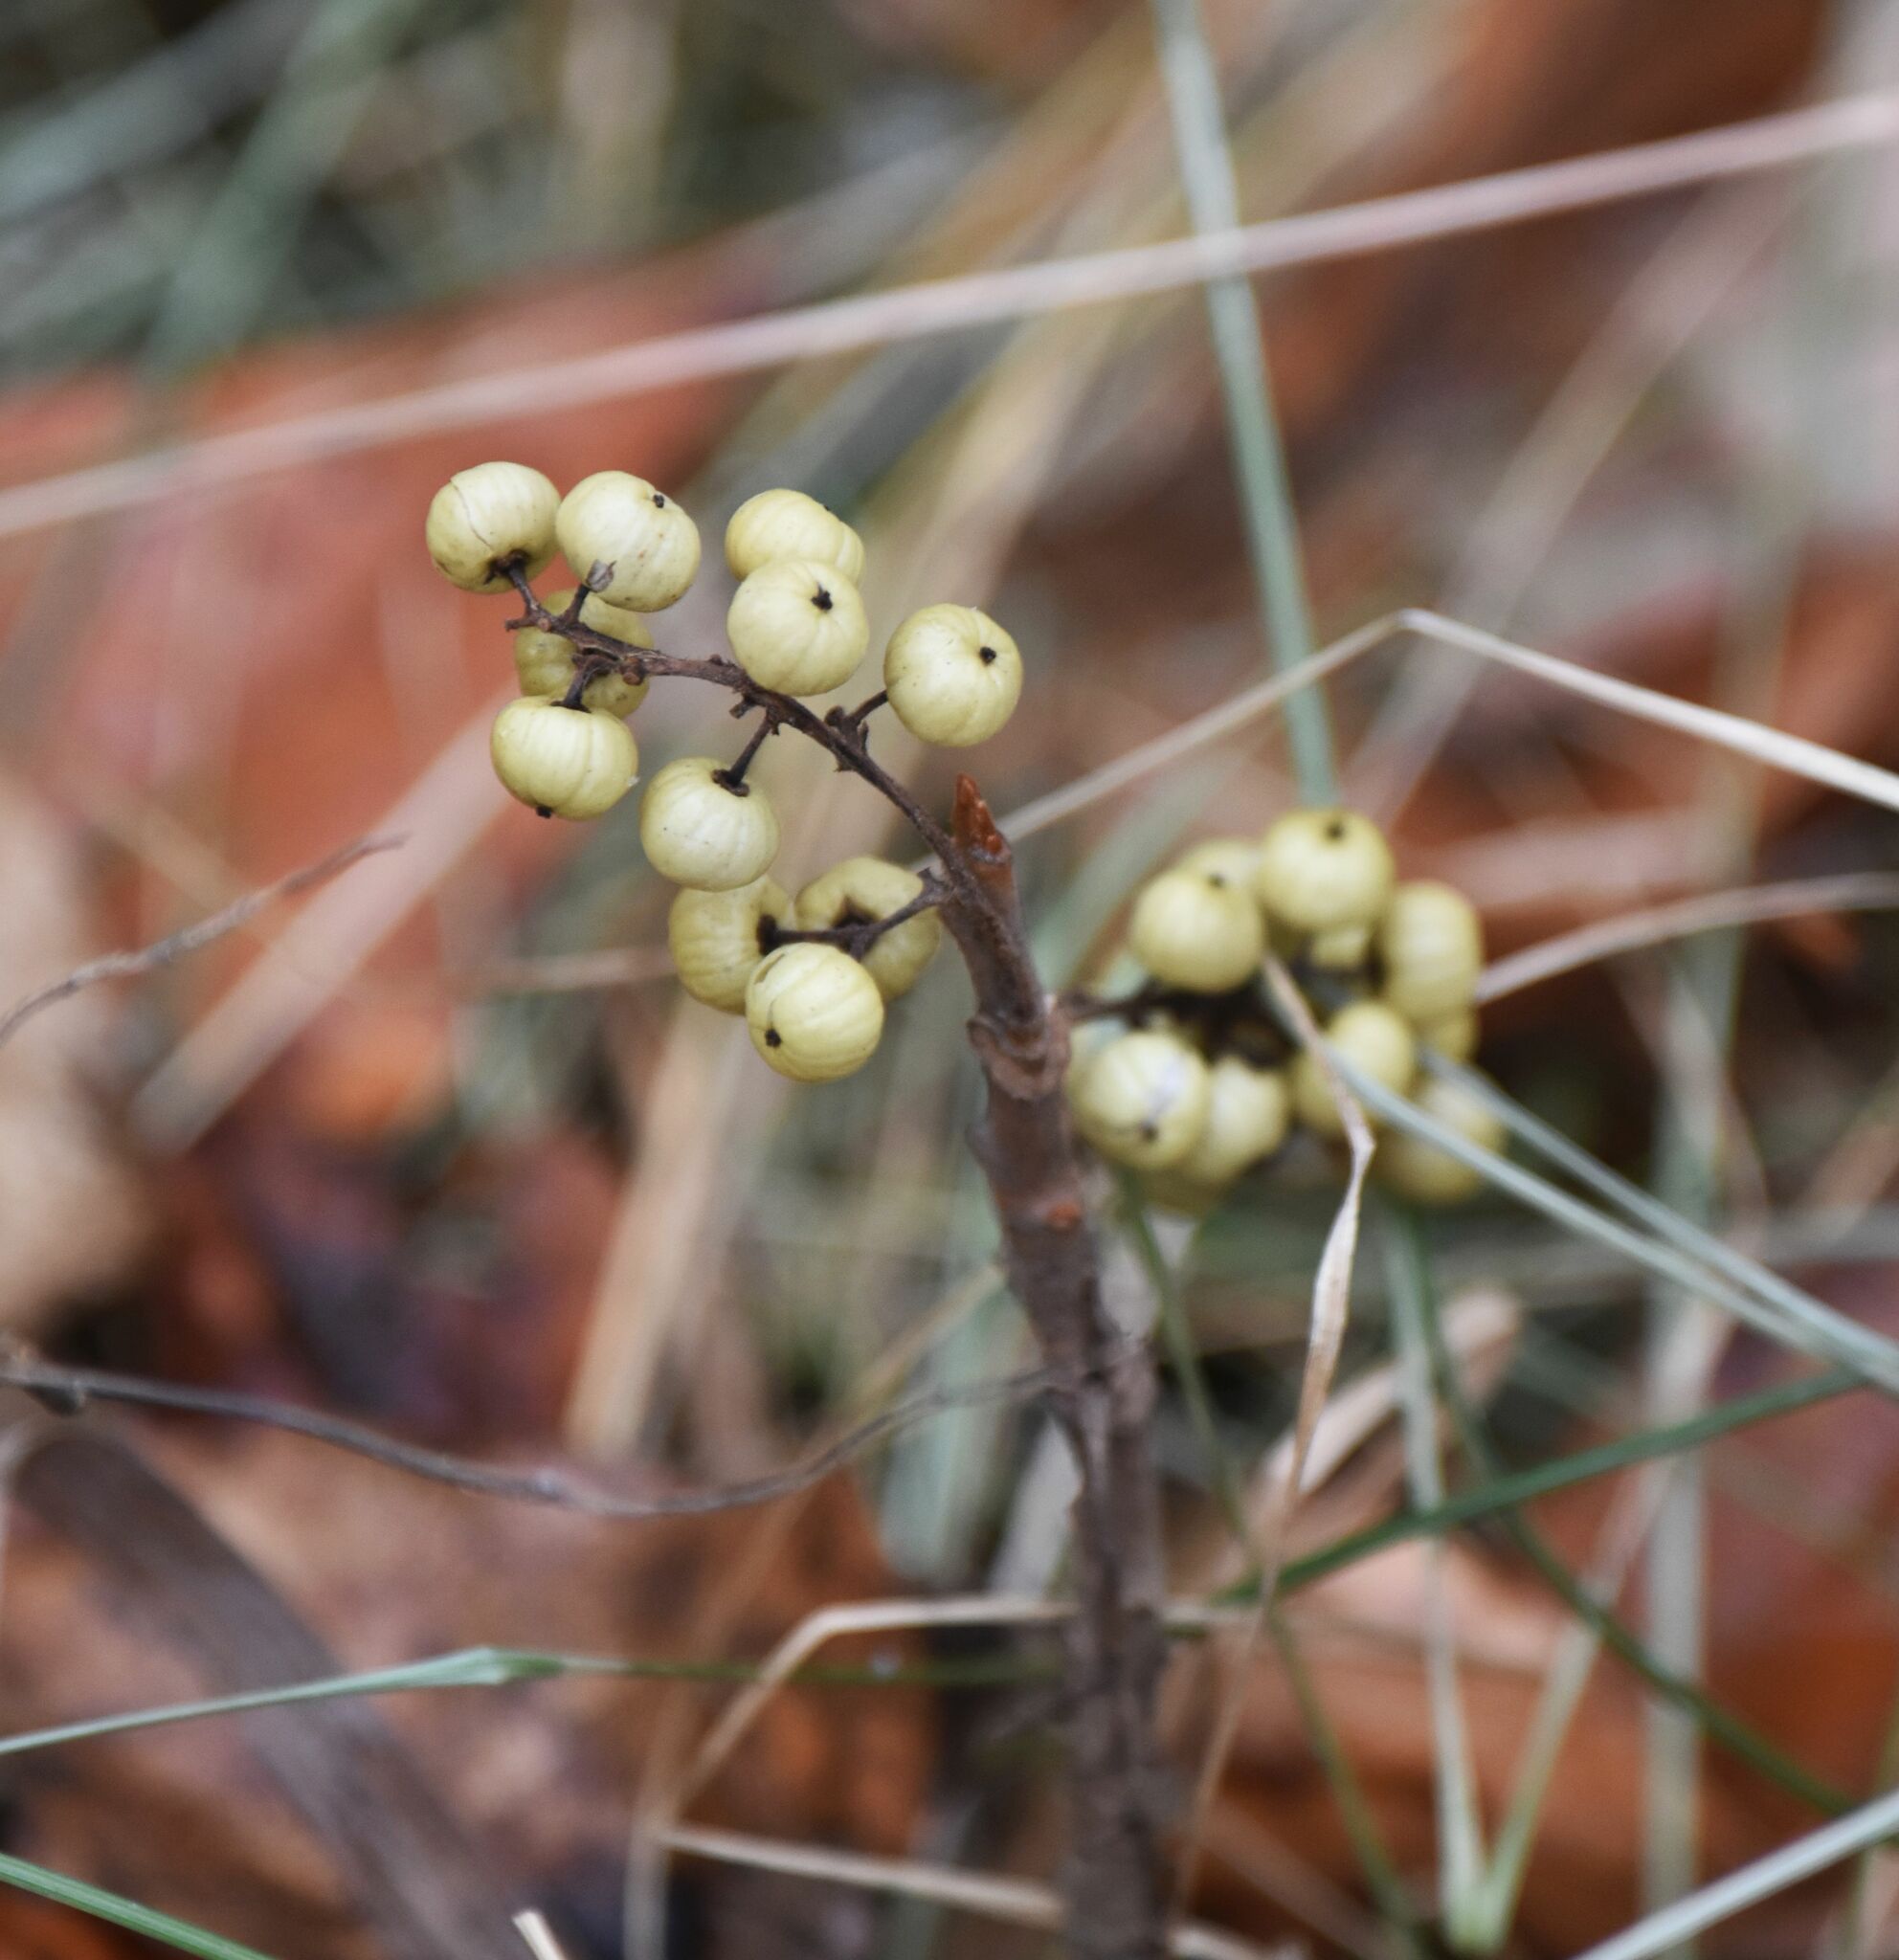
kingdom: Plantae
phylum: Tracheophyta
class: Magnoliopsida
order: Sapindales
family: Anacardiaceae
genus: Toxicodendron
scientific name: Toxicodendron rydbergii
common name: Rydberg's poison-ivy
